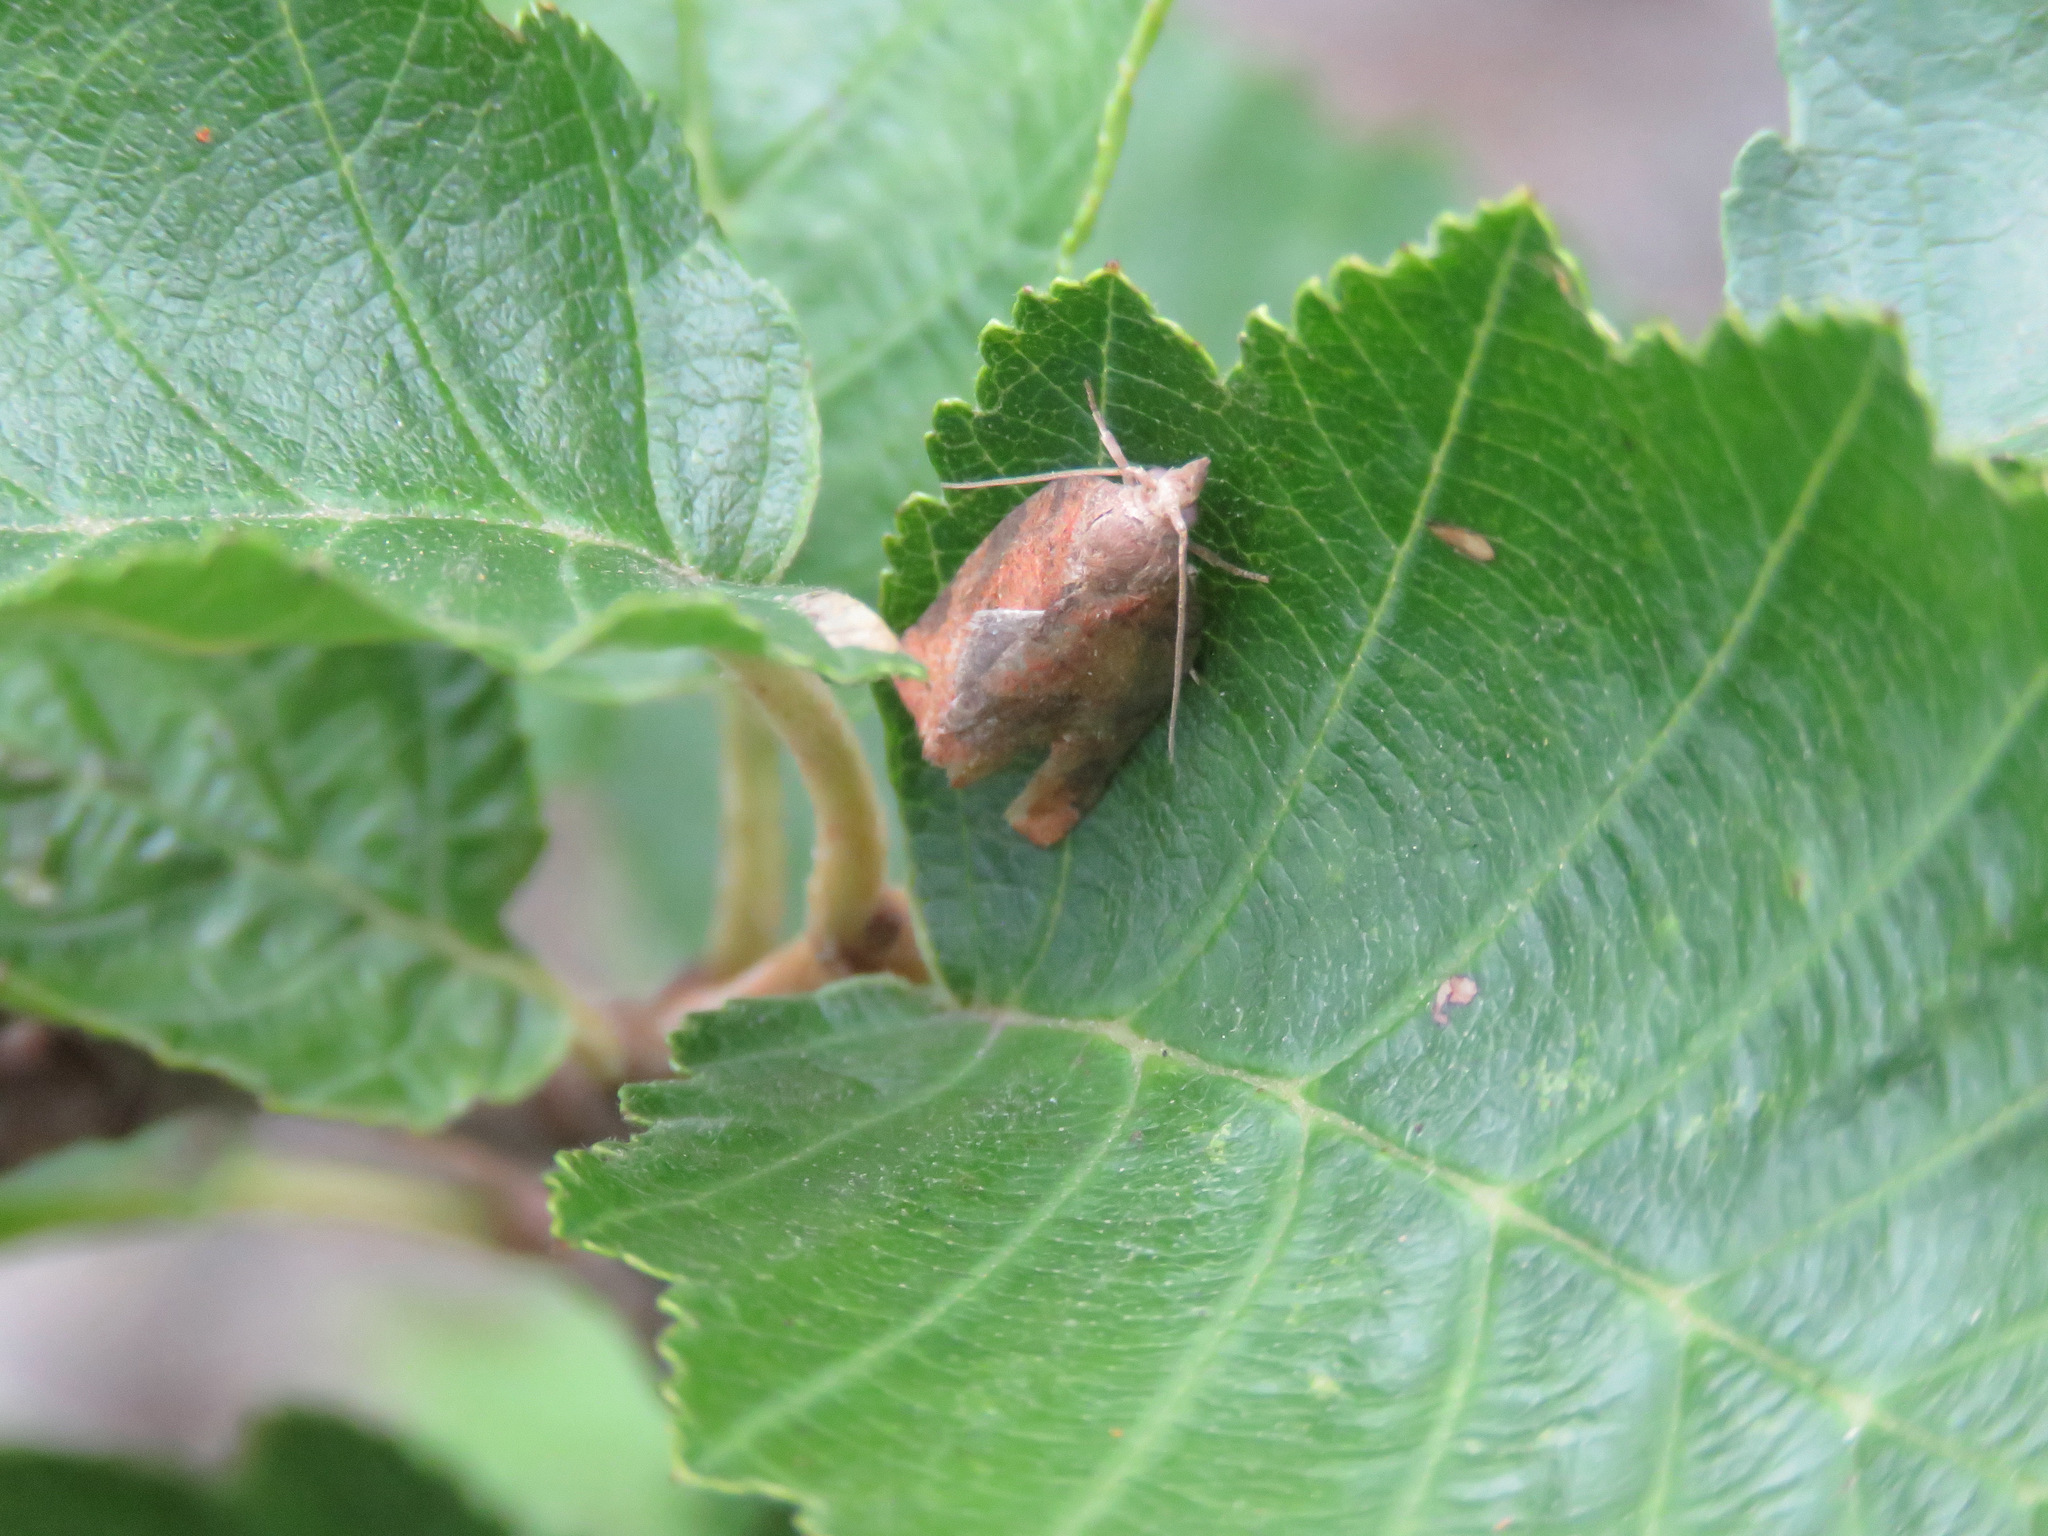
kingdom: Animalia
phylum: Arthropoda
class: Insecta
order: Lepidoptera
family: Tortricidae
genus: Pandemis
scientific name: Pandemis canadana
